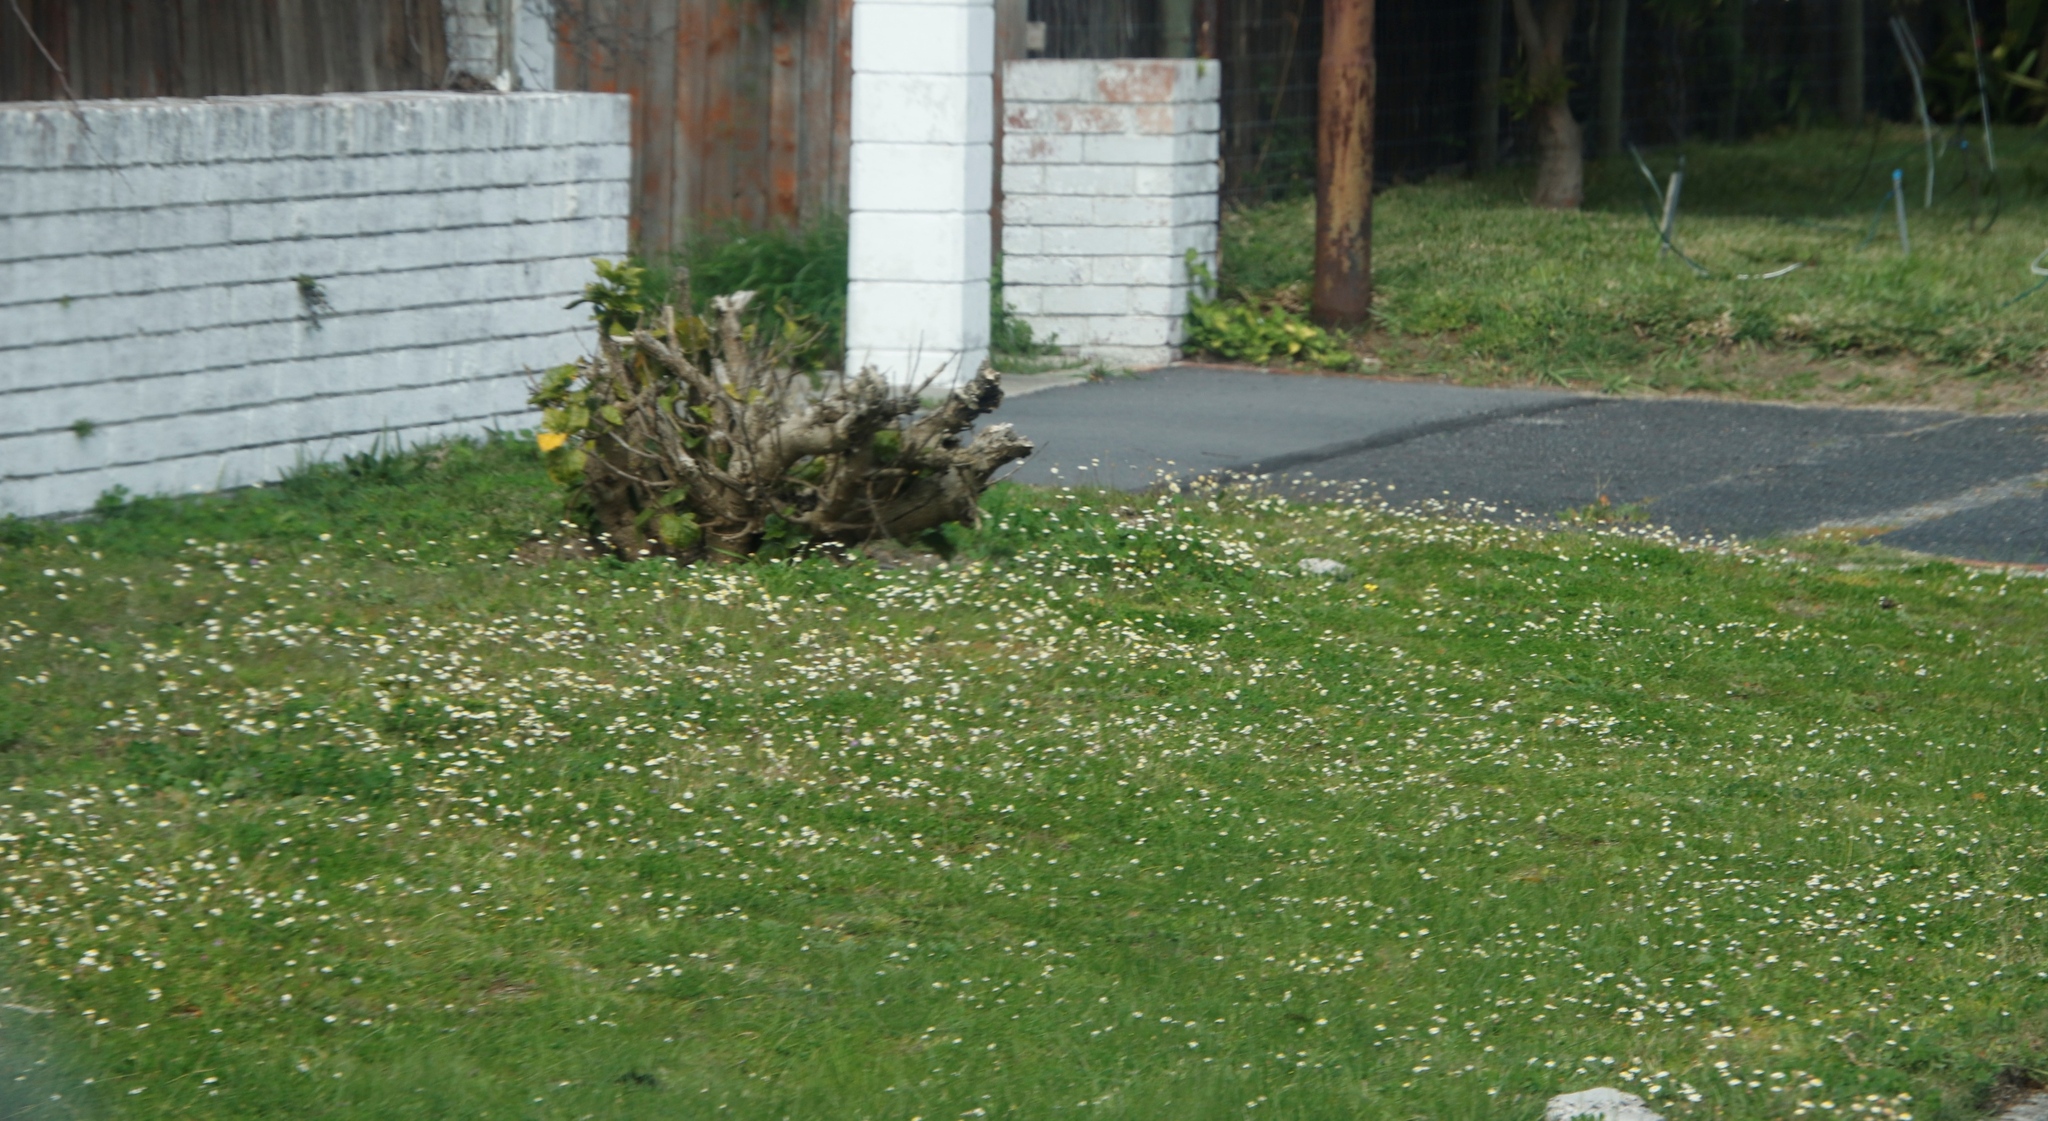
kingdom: Plantae
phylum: Tracheophyta
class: Magnoliopsida
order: Asterales
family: Asteraceae
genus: Cotula
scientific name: Cotula turbinata
